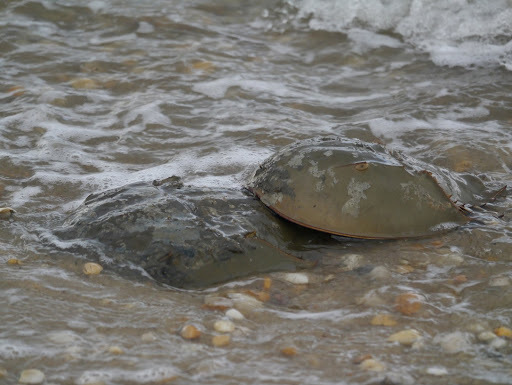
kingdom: Animalia
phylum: Arthropoda
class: Merostomata
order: Xiphosurida
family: Limulidae
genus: Limulus
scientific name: Limulus polyphemus
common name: Horseshoe crab
